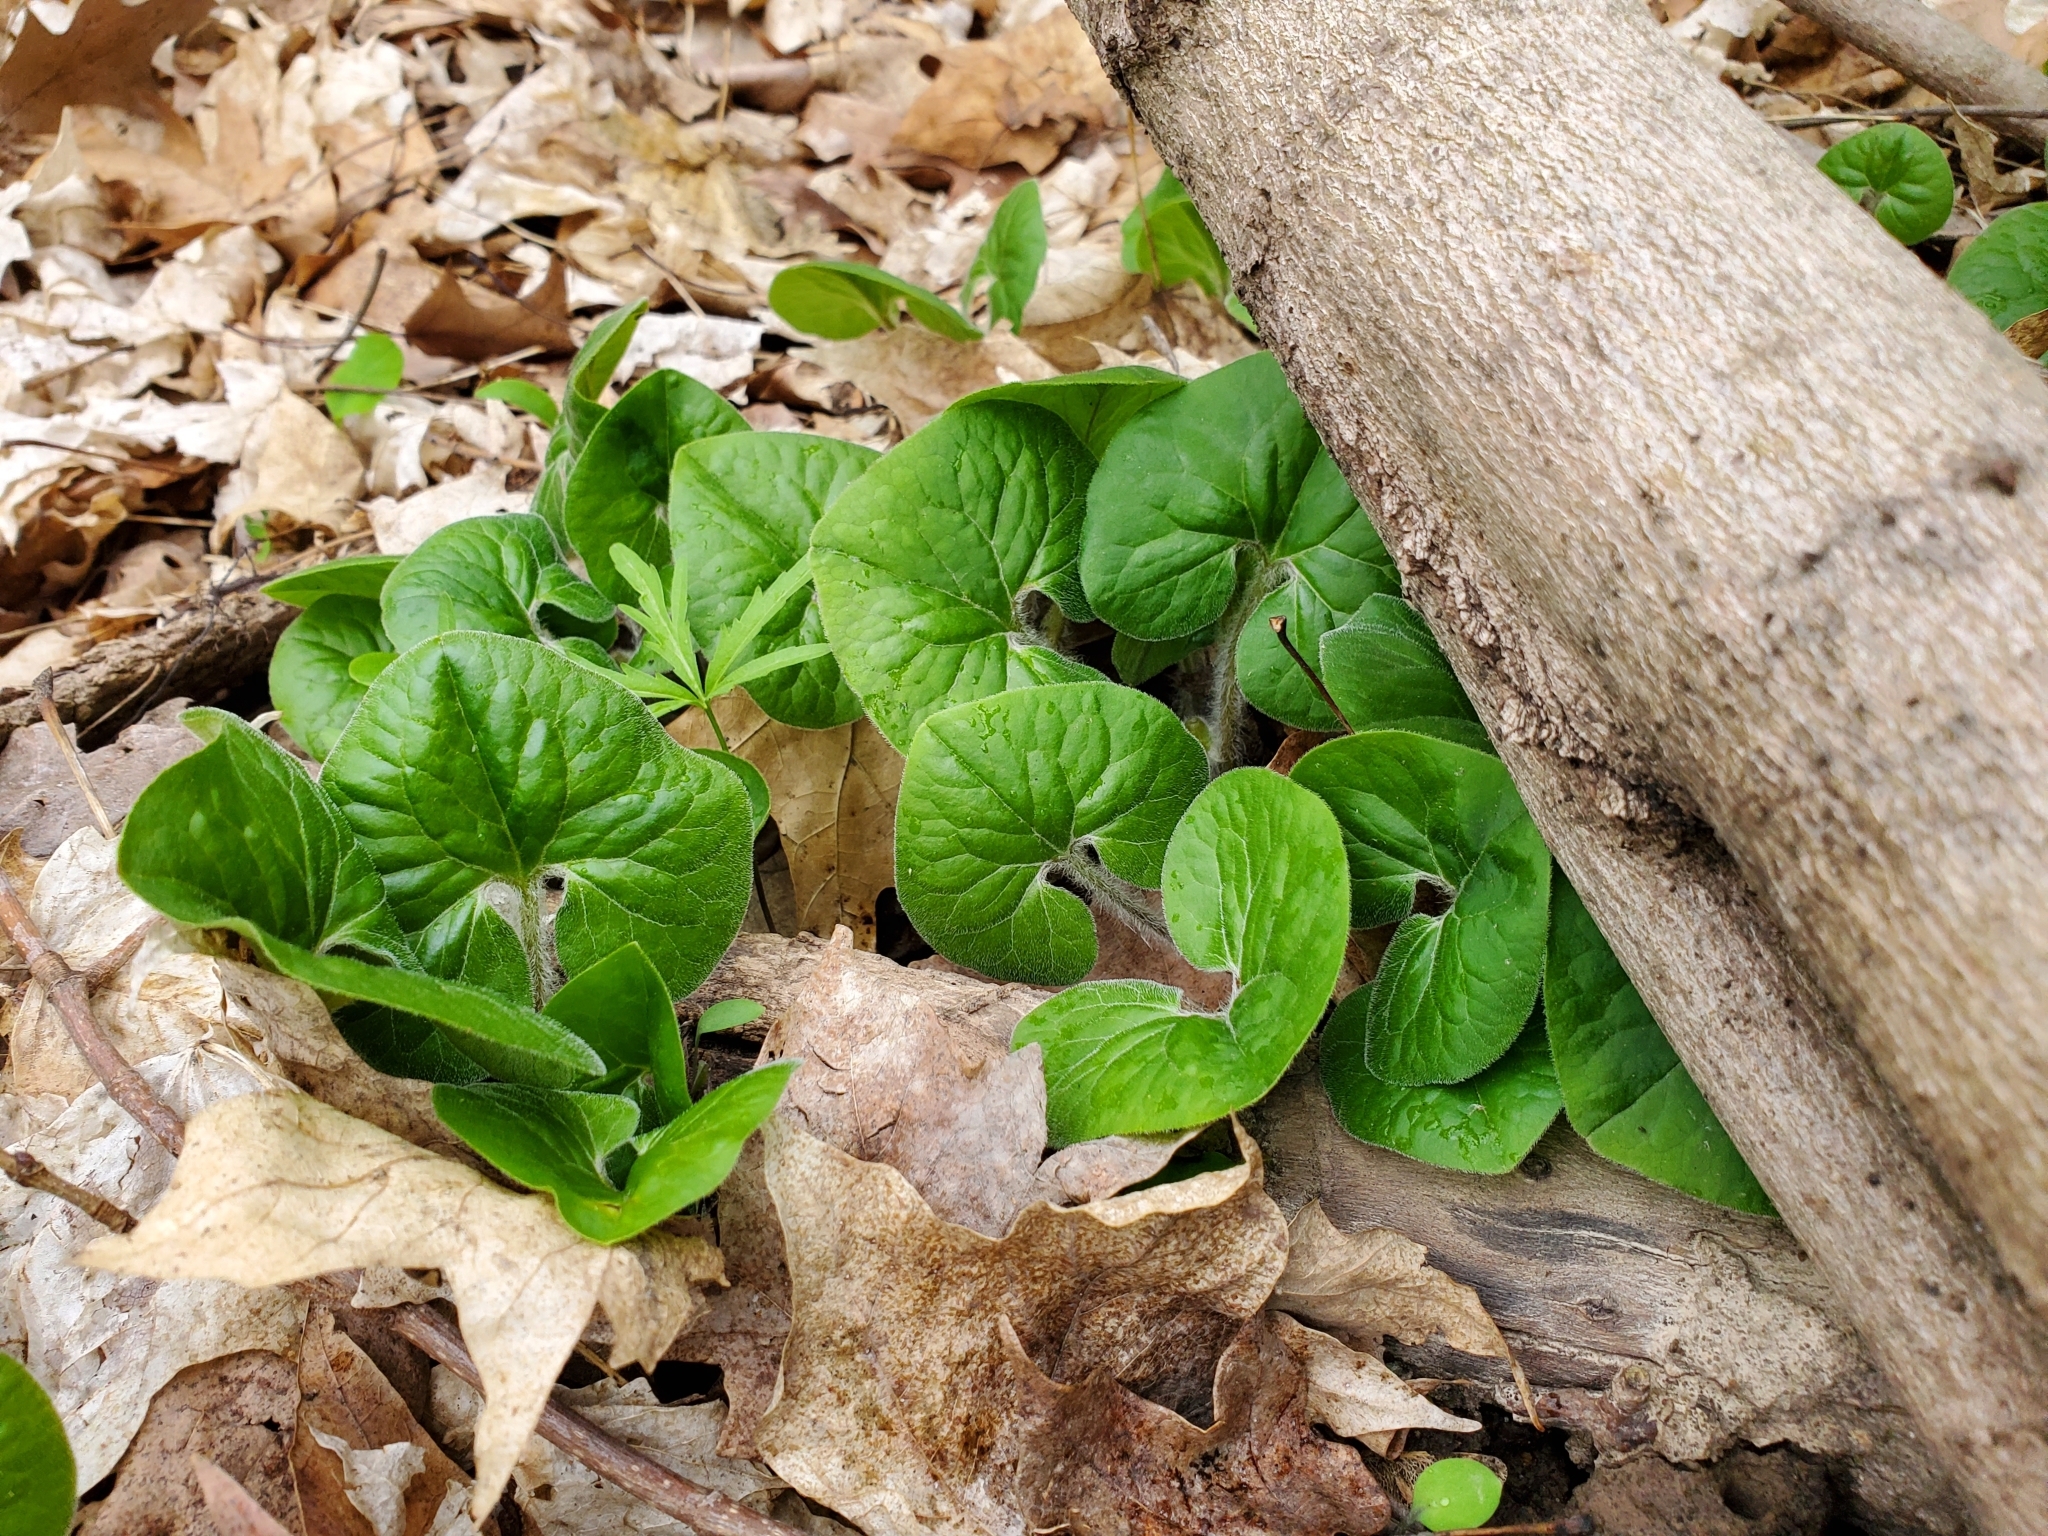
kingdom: Plantae
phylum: Tracheophyta
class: Magnoliopsida
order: Piperales
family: Aristolochiaceae
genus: Asarum
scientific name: Asarum canadense
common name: Wild ginger
